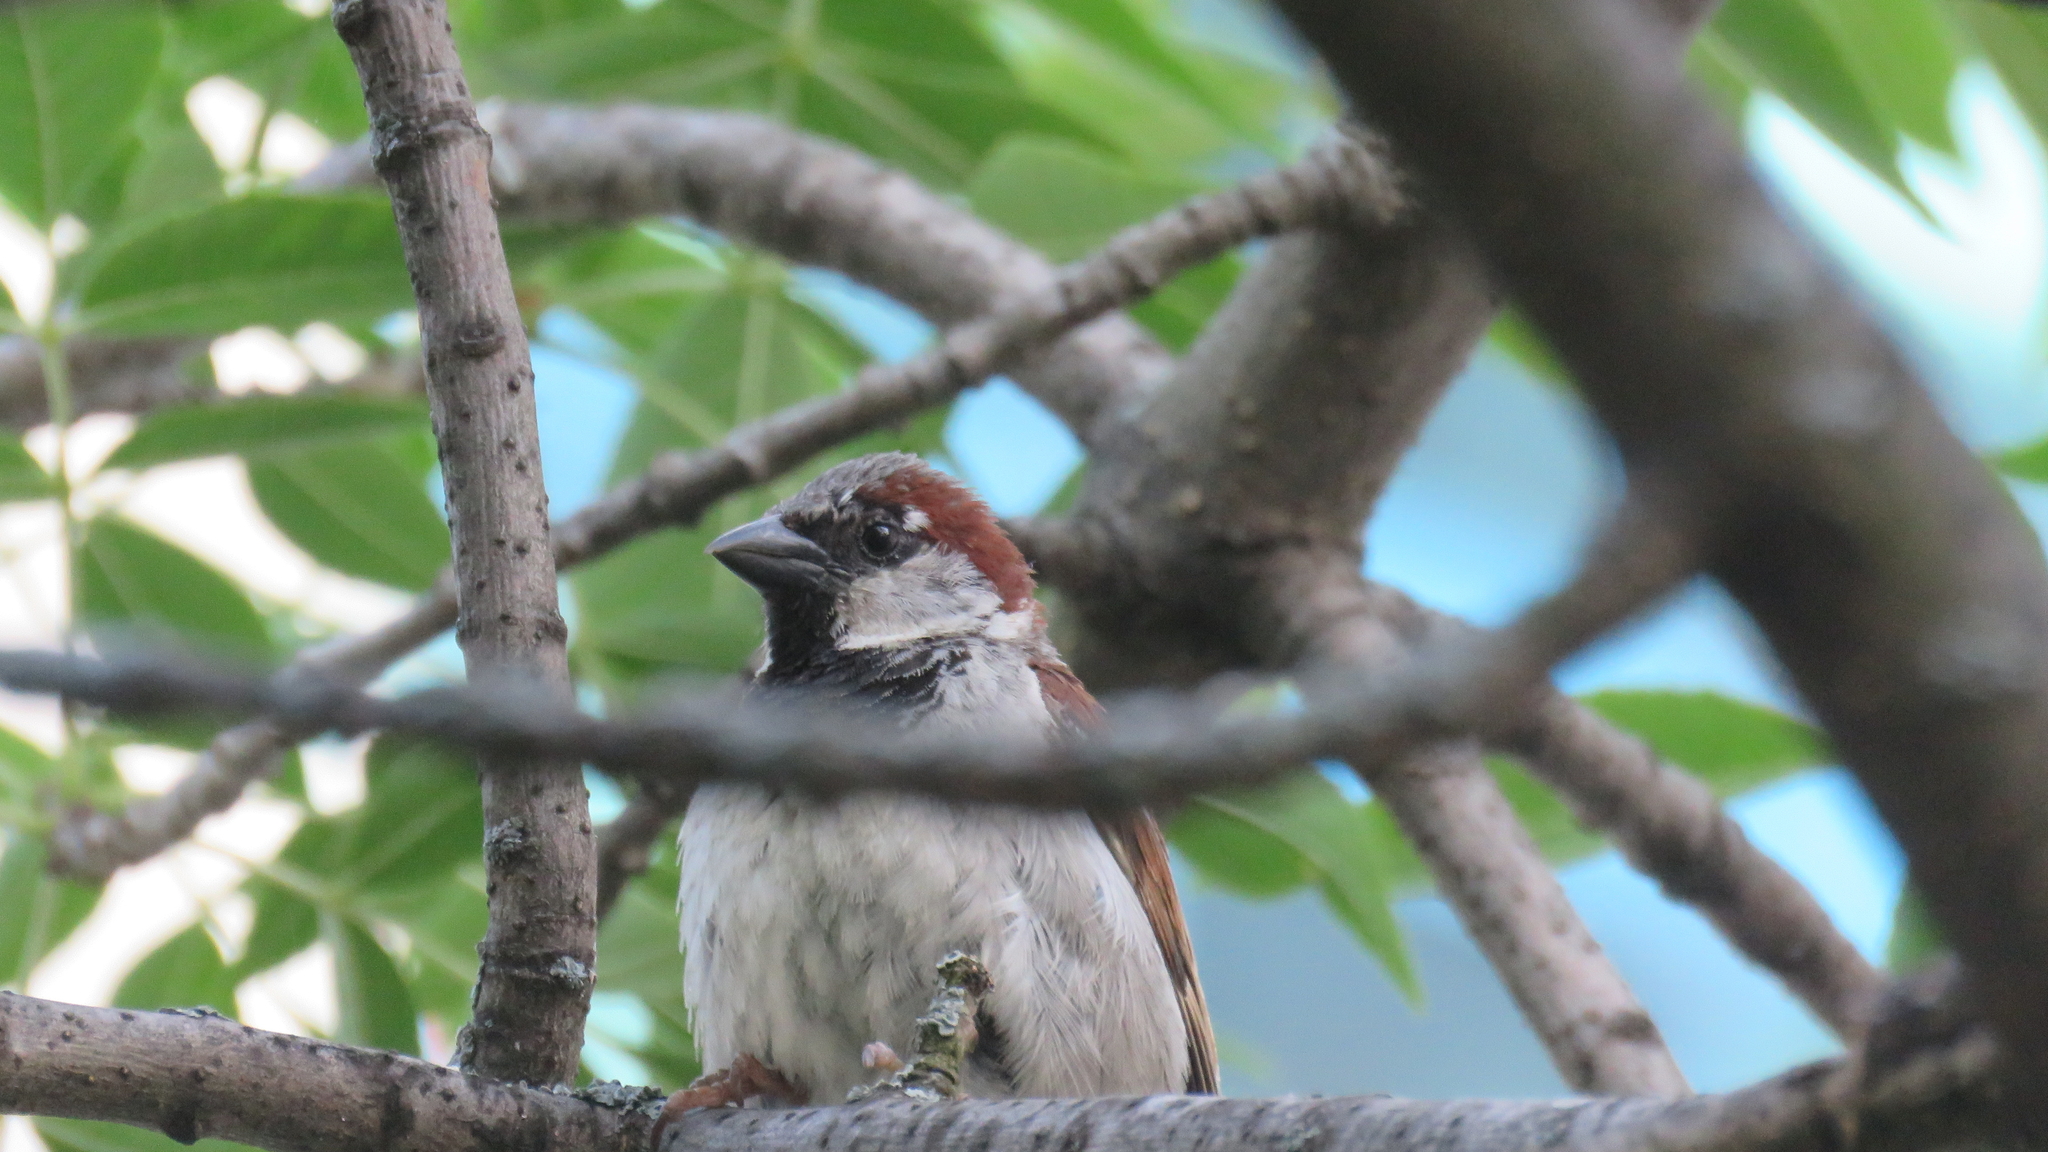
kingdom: Animalia
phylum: Chordata
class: Aves
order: Passeriformes
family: Passeridae
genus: Passer
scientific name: Passer domesticus
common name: House sparrow
